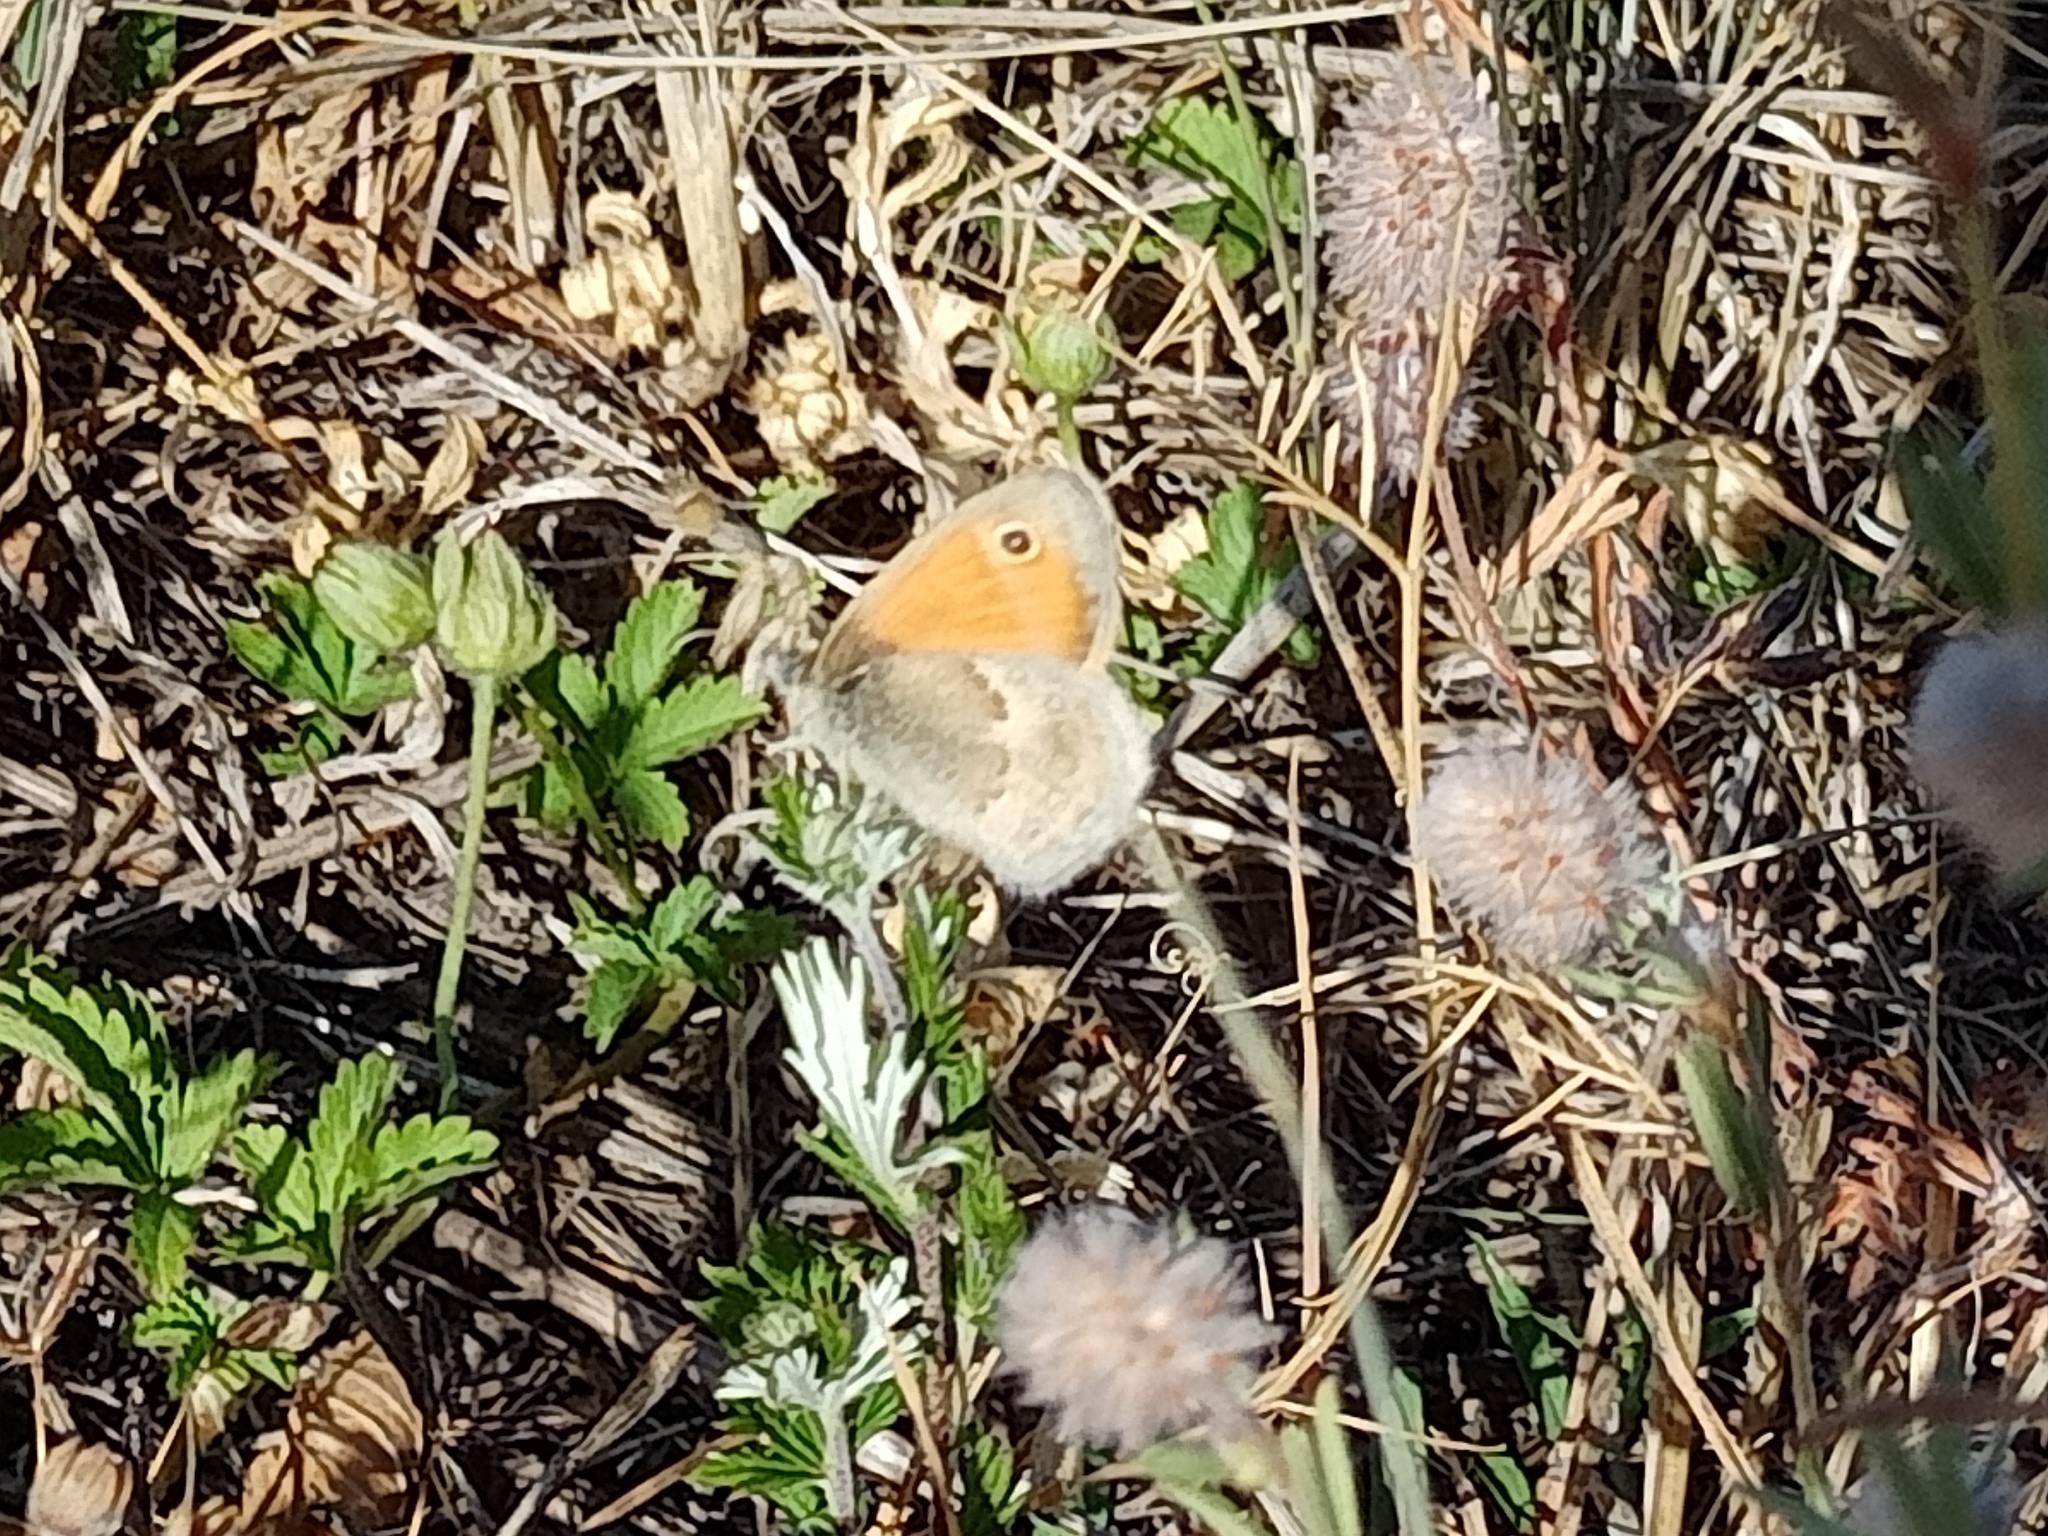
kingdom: Animalia
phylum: Arthropoda
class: Insecta
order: Lepidoptera
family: Nymphalidae
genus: Coenonympha
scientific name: Coenonympha pamphilus
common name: Small heath
